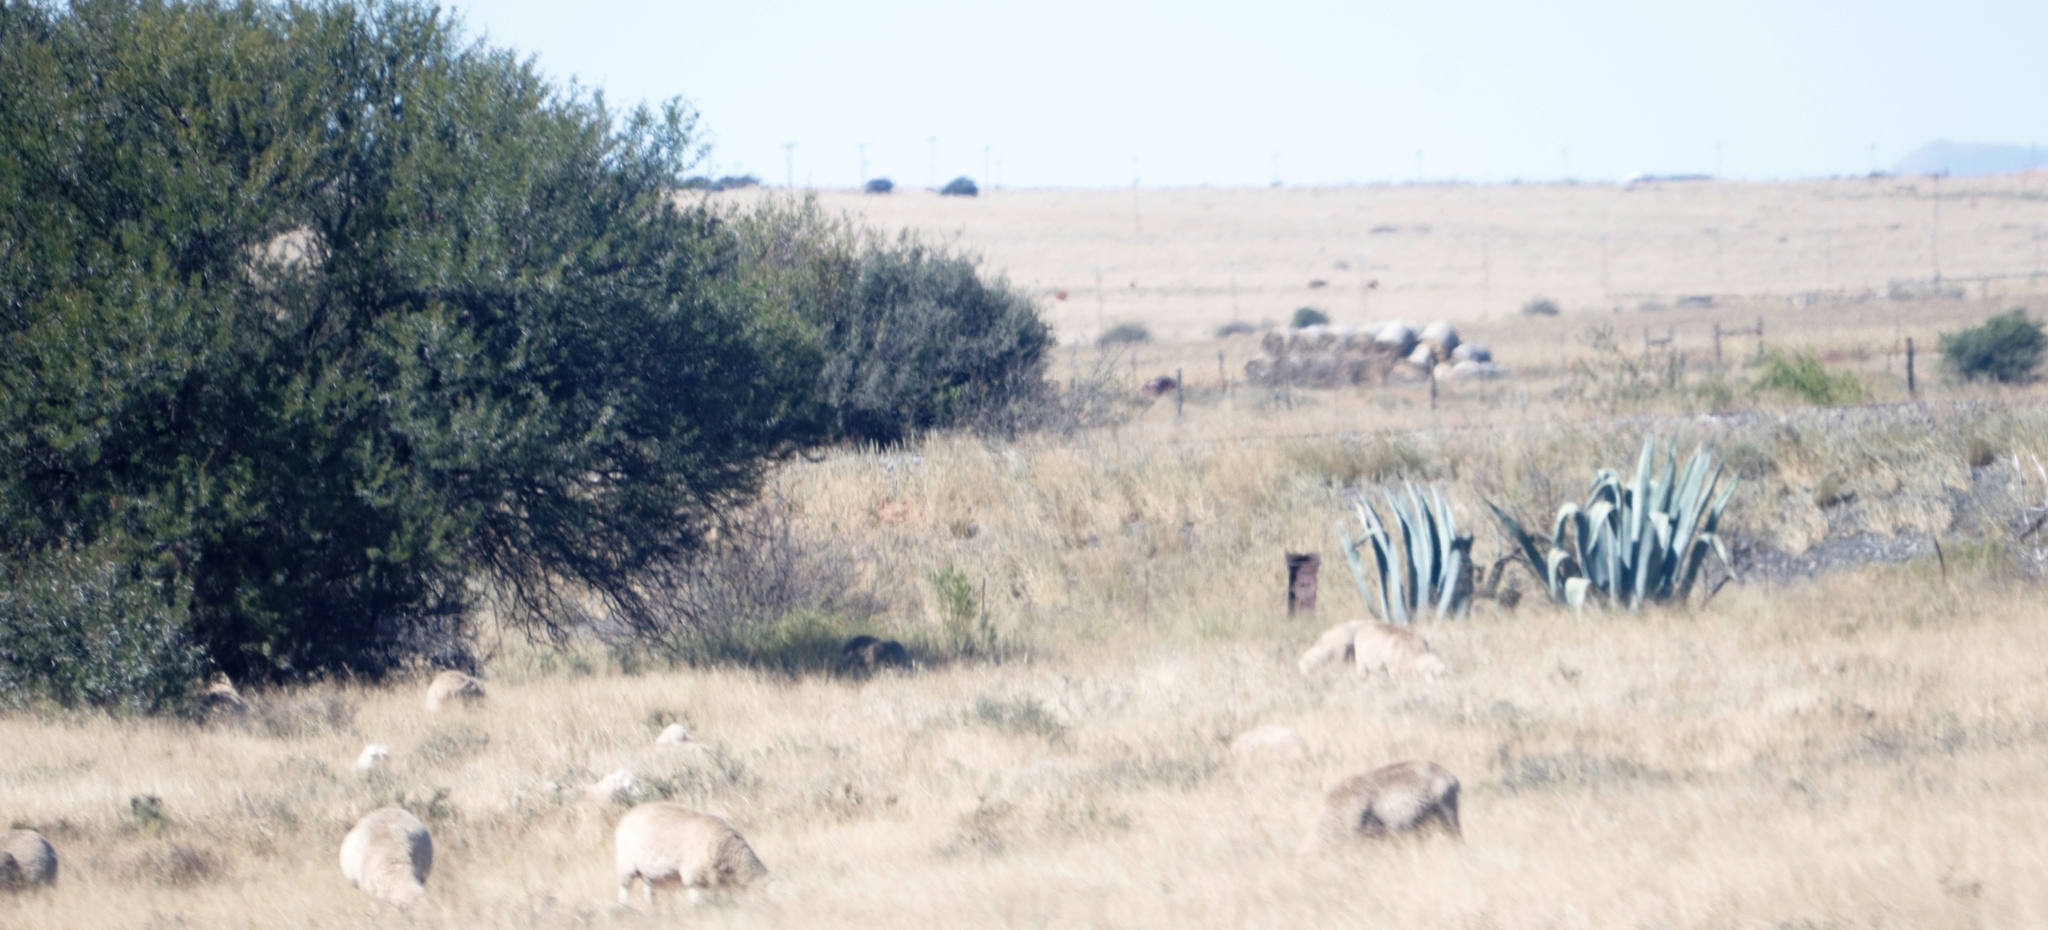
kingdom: Plantae
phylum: Tracheophyta
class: Liliopsida
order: Asparagales
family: Asparagaceae
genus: Agave
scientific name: Agave americana
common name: Centuryplant
